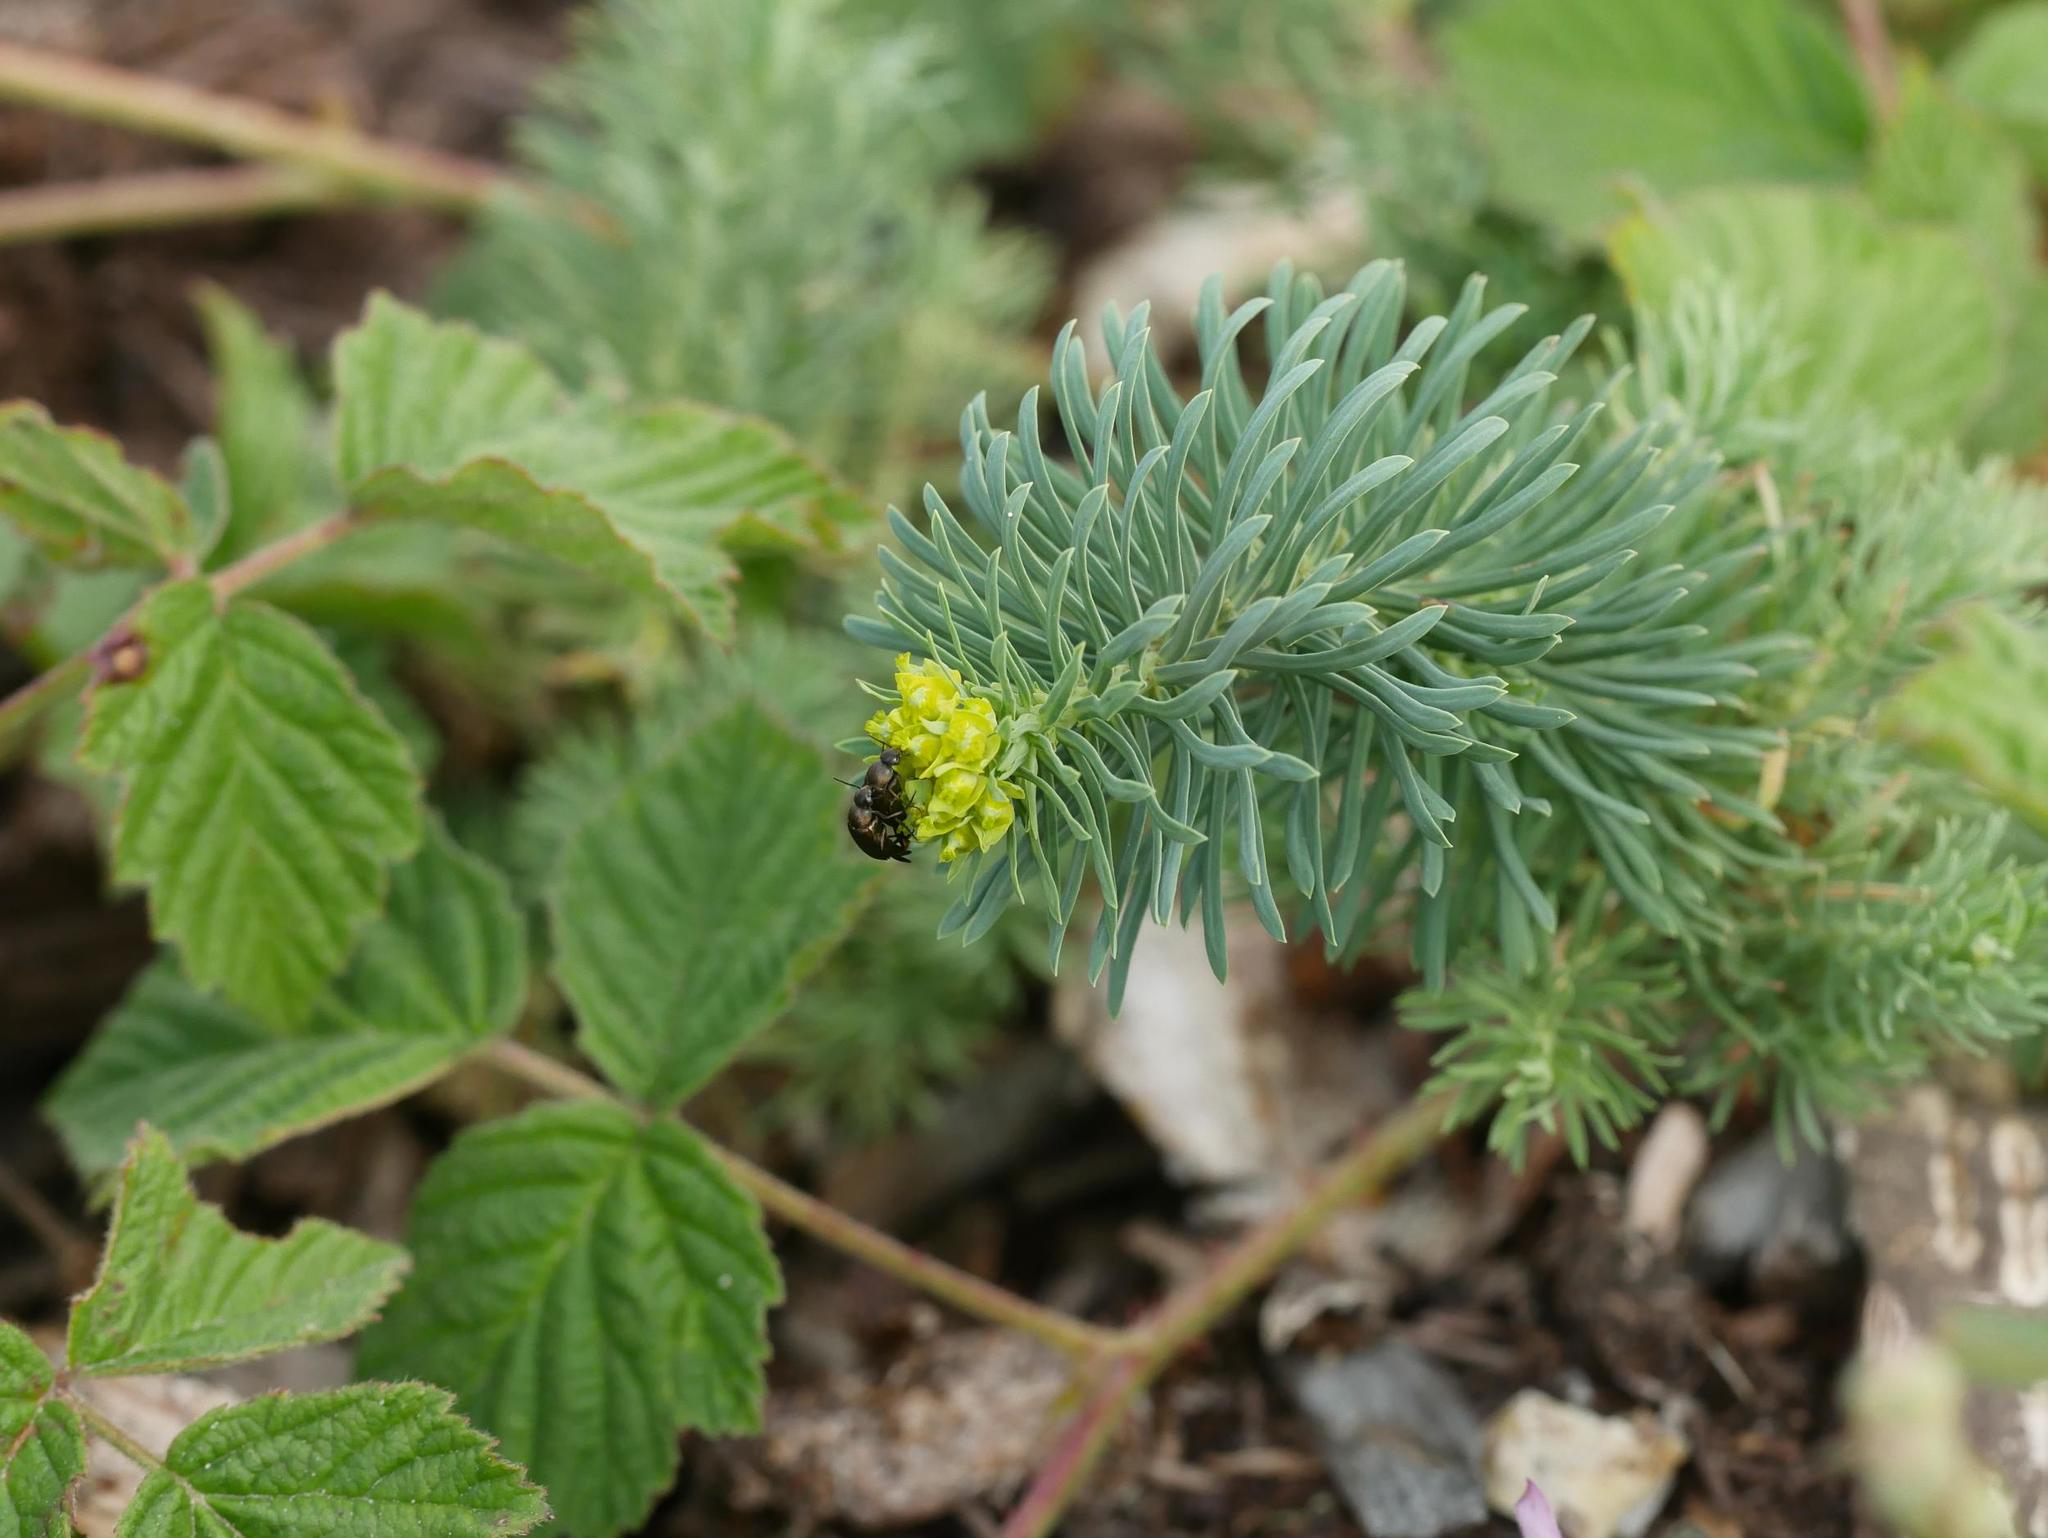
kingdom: Plantae
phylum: Tracheophyta
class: Magnoliopsida
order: Malpighiales
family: Euphorbiaceae
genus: Euphorbia
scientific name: Euphorbia cyparissias
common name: Cypress spurge
